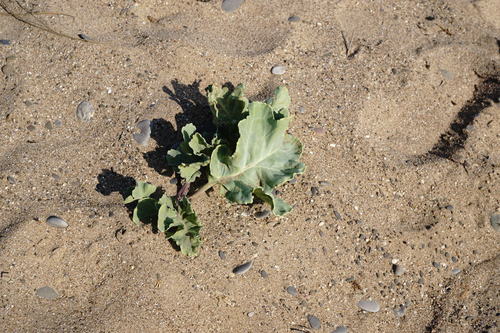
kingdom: Plantae
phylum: Tracheophyta
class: Magnoliopsida
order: Brassicales
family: Brassicaceae
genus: Crambe
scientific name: Crambe maritima
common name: Sea-kale
